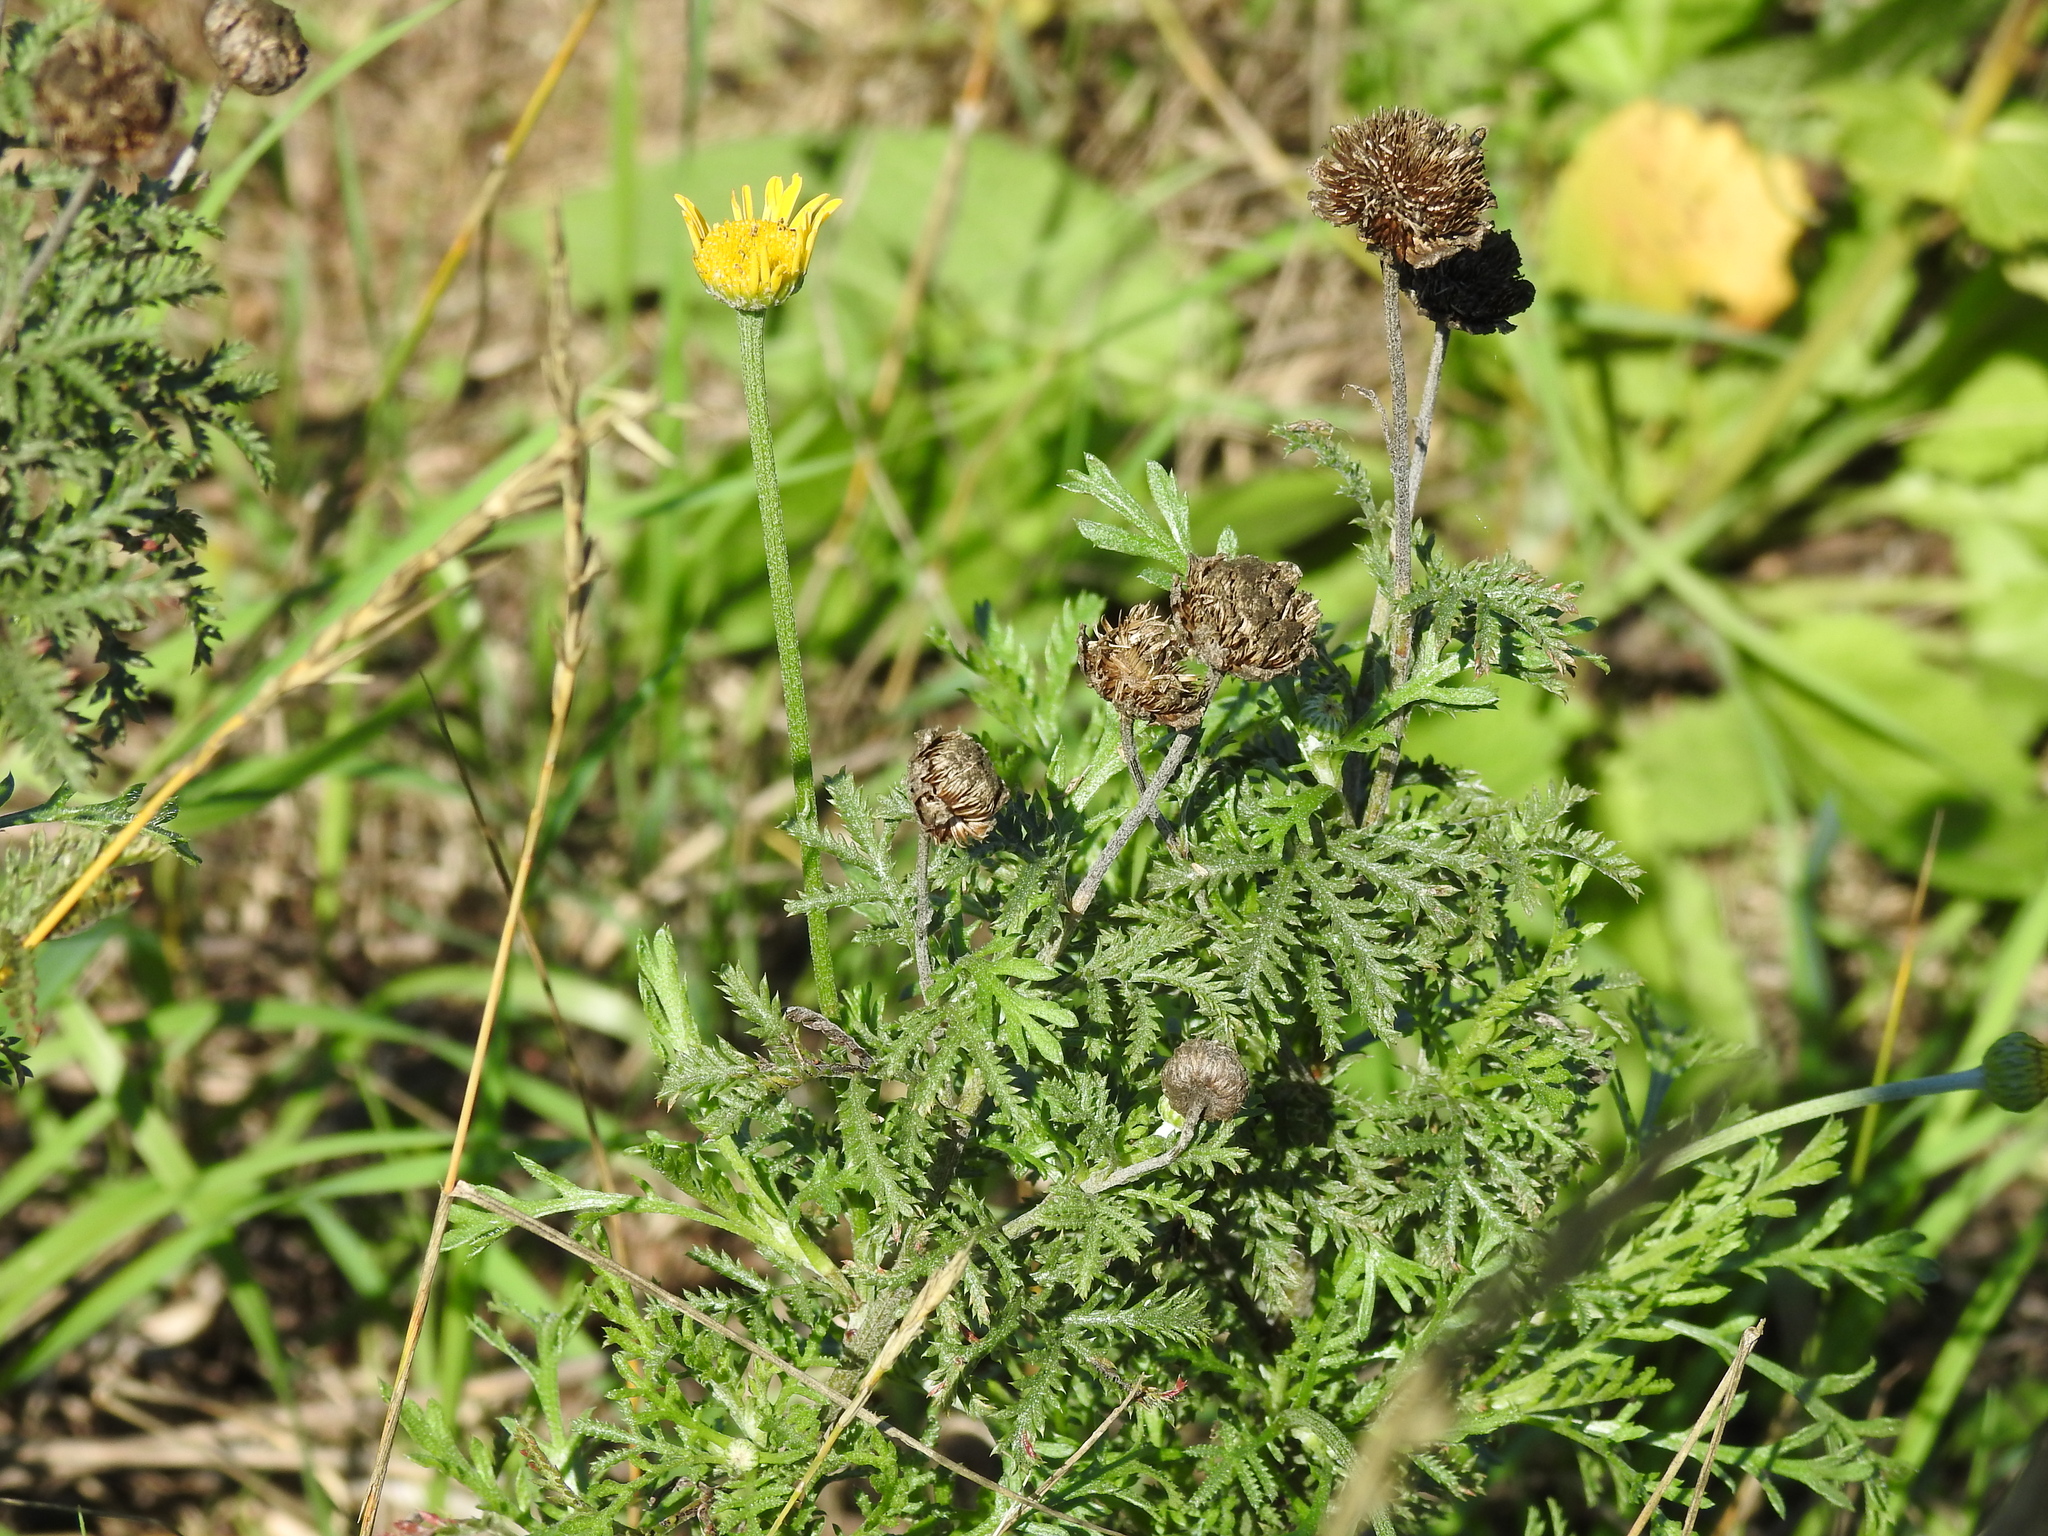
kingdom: Plantae
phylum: Tracheophyta
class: Magnoliopsida
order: Asterales
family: Asteraceae
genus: Cota
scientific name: Cota tinctoria
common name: Golden chamomile
